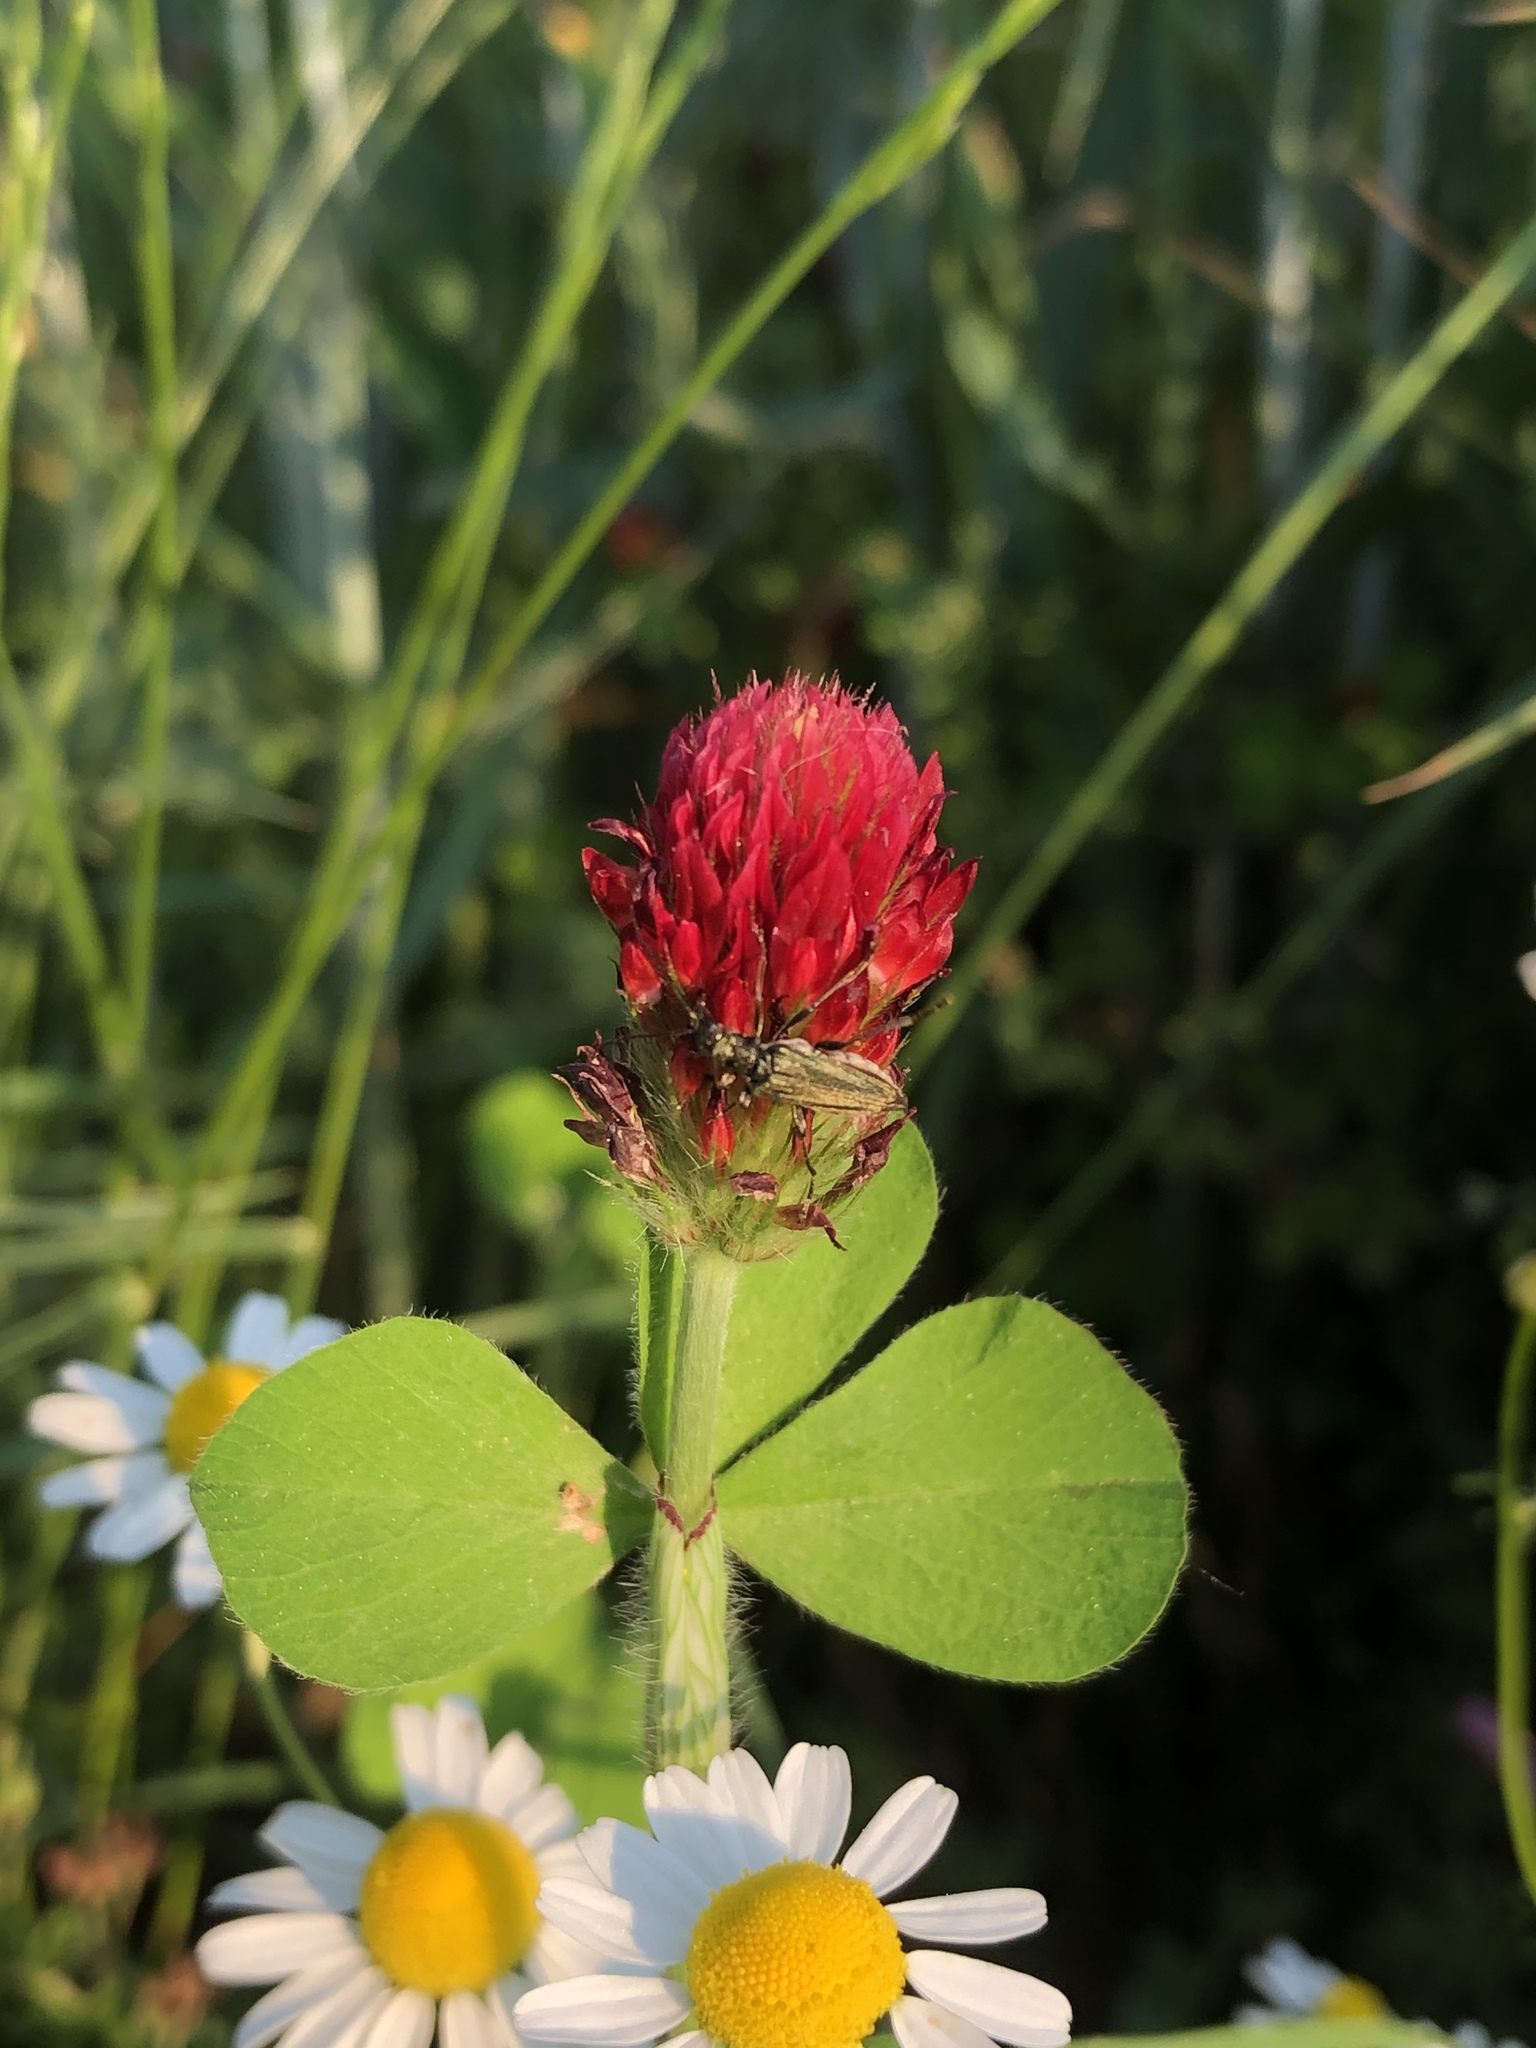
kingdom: Plantae
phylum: Tracheophyta
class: Magnoliopsida
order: Fabales
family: Fabaceae
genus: Trifolium
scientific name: Trifolium incarnatum
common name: Crimson clover
